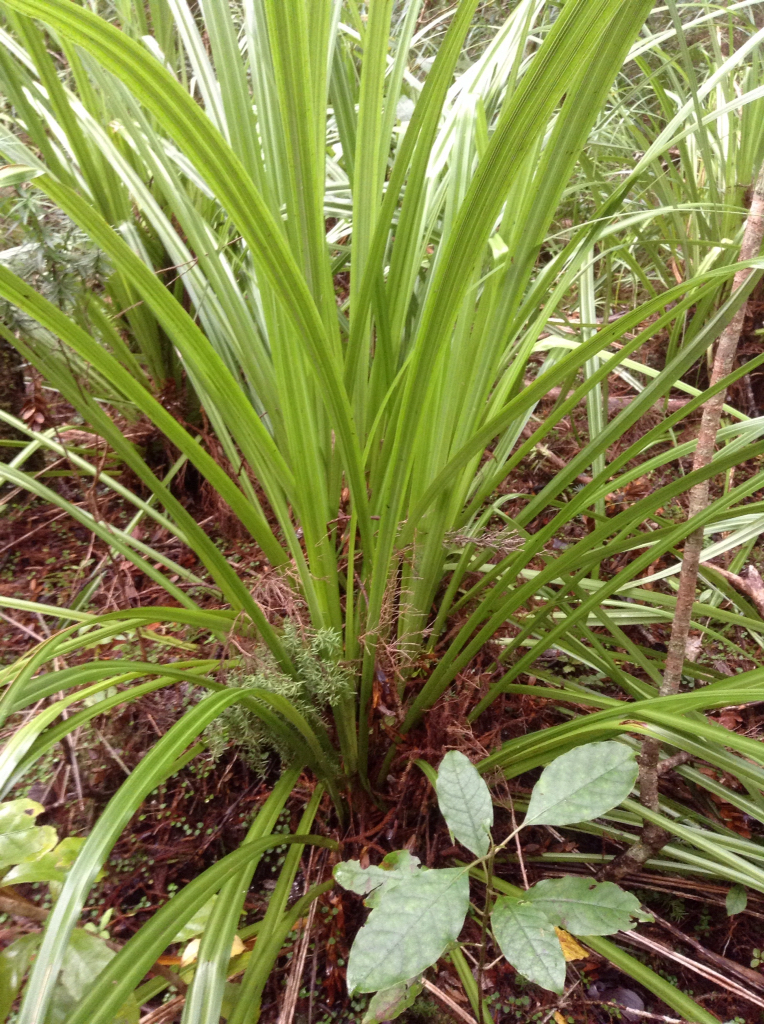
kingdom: Plantae
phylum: Tracheophyta
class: Liliopsida
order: Asparagales
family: Asteliaceae
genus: Astelia
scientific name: Astelia trinervia
